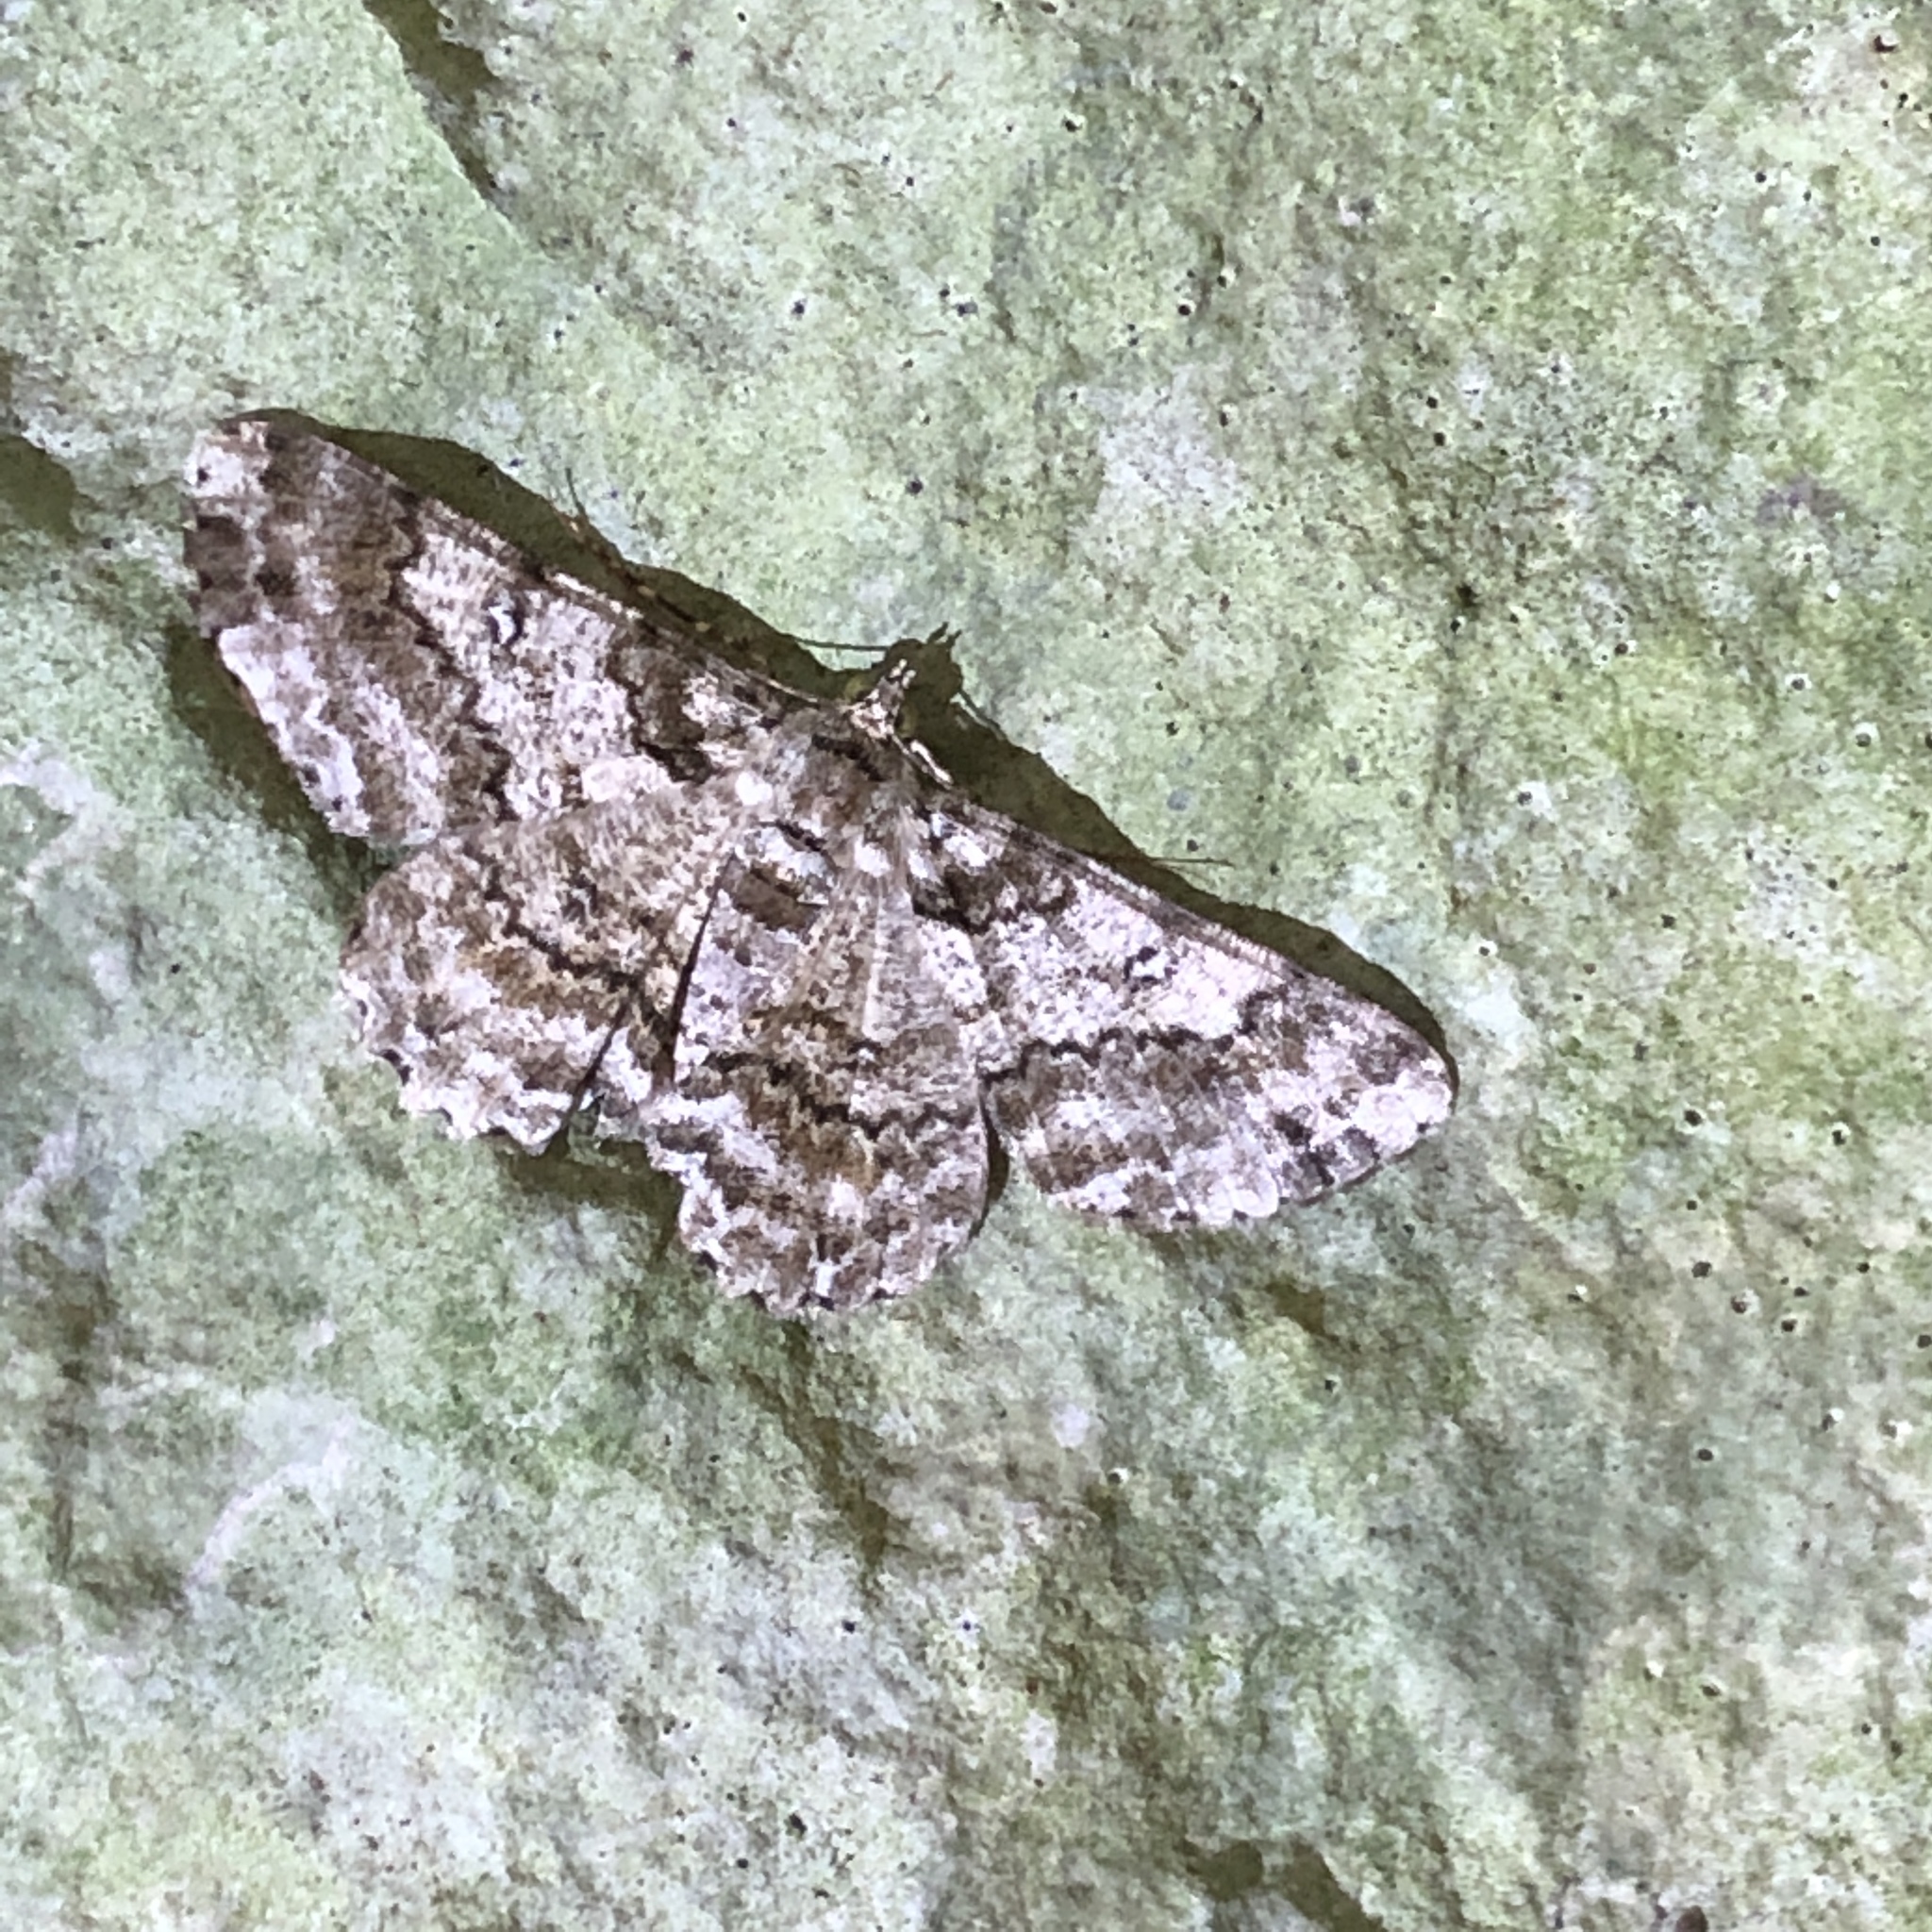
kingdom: Animalia
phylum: Arthropoda
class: Insecta
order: Lepidoptera
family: Geometridae
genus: Cleora
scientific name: Cleora minutaria
